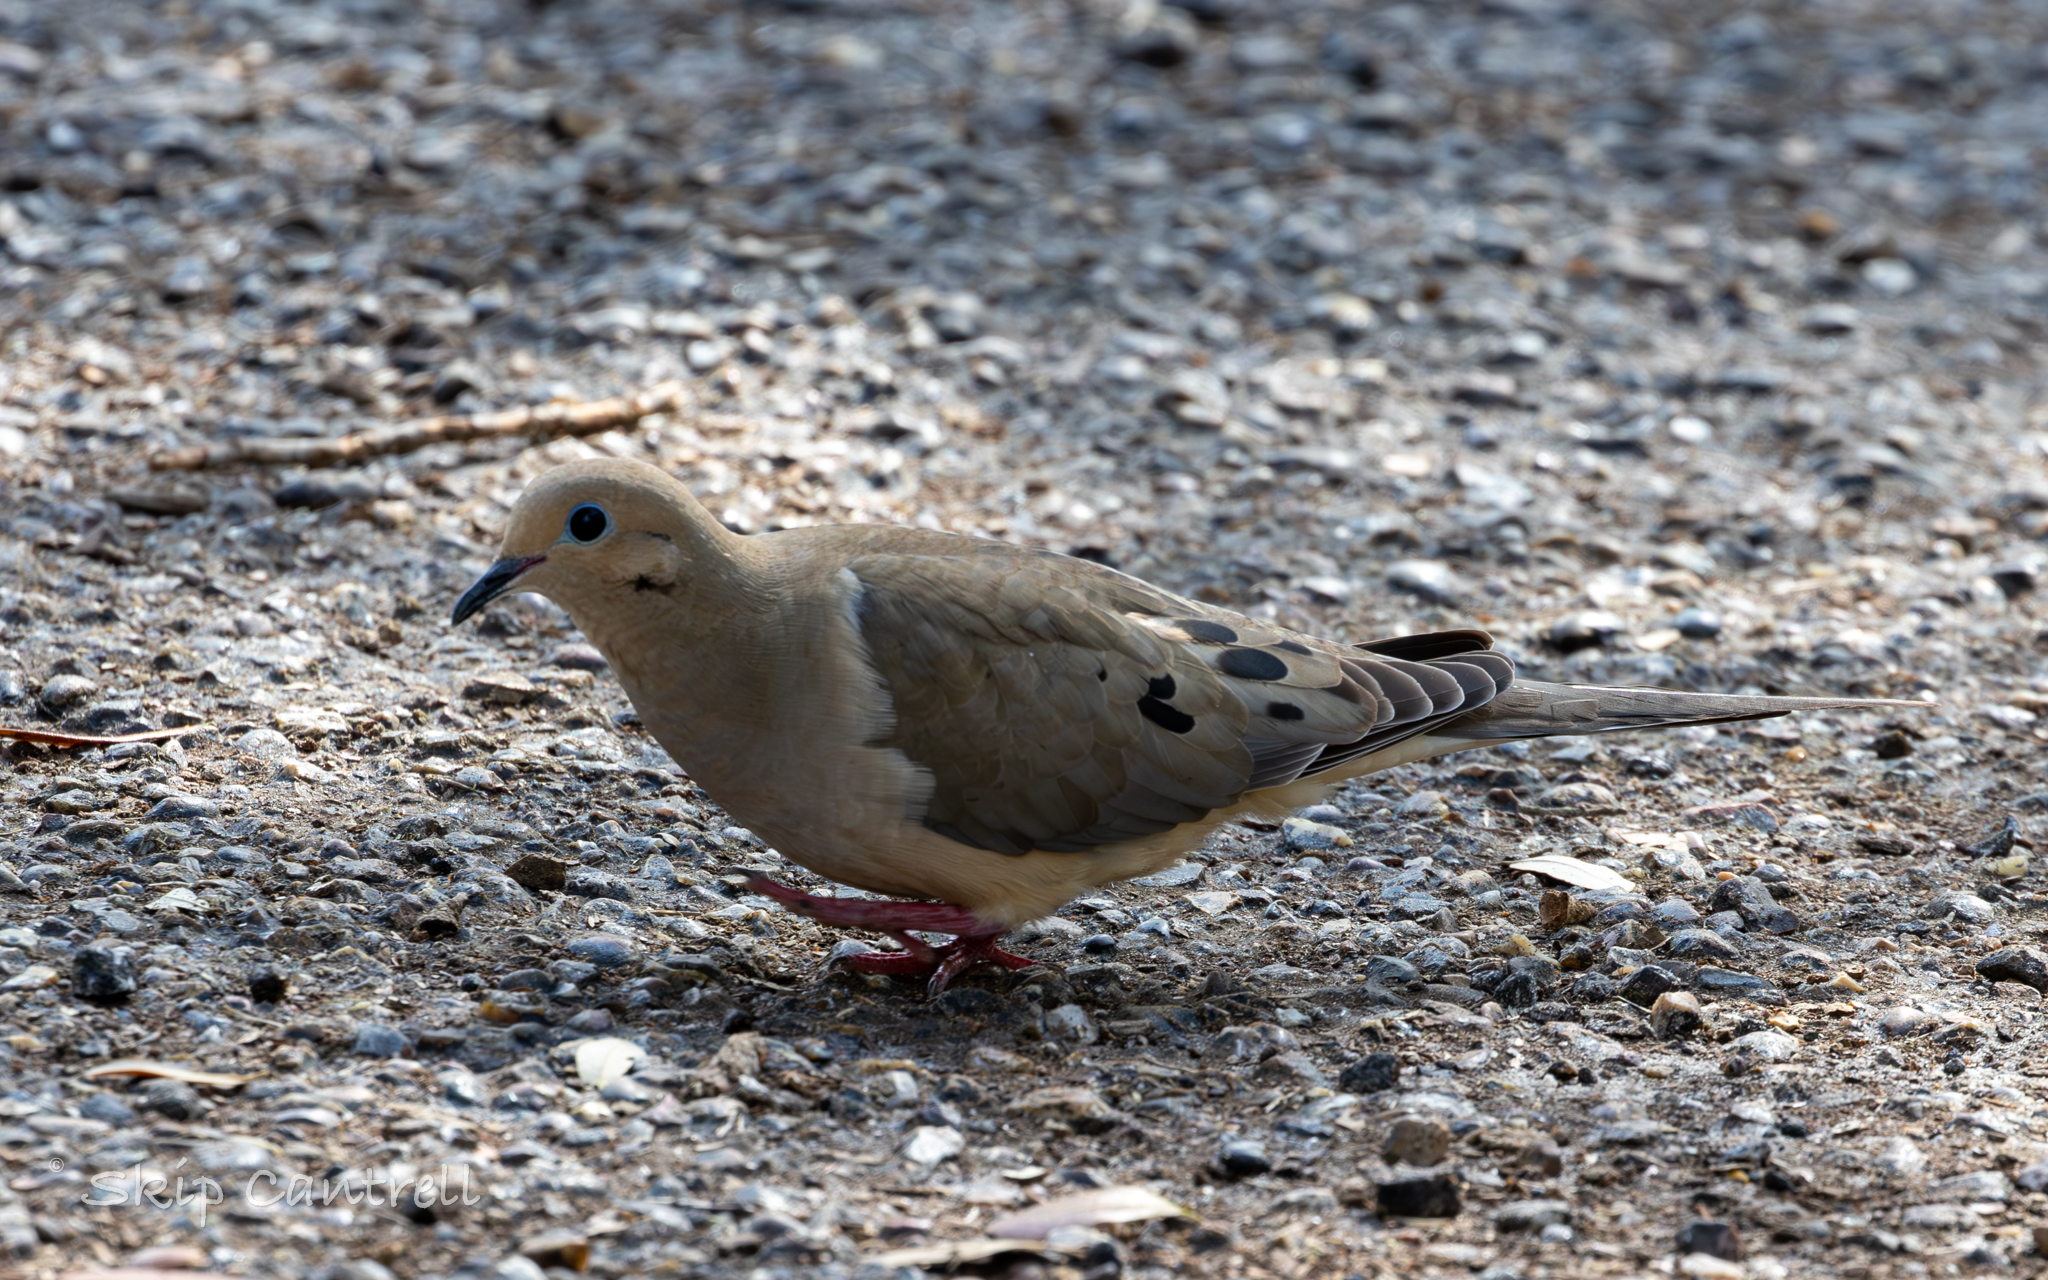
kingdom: Animalia
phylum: Chordata
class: Aves
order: Columbiformes
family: Columbidae
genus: Zenaida
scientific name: Zenaida macroura
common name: Mourning dove
